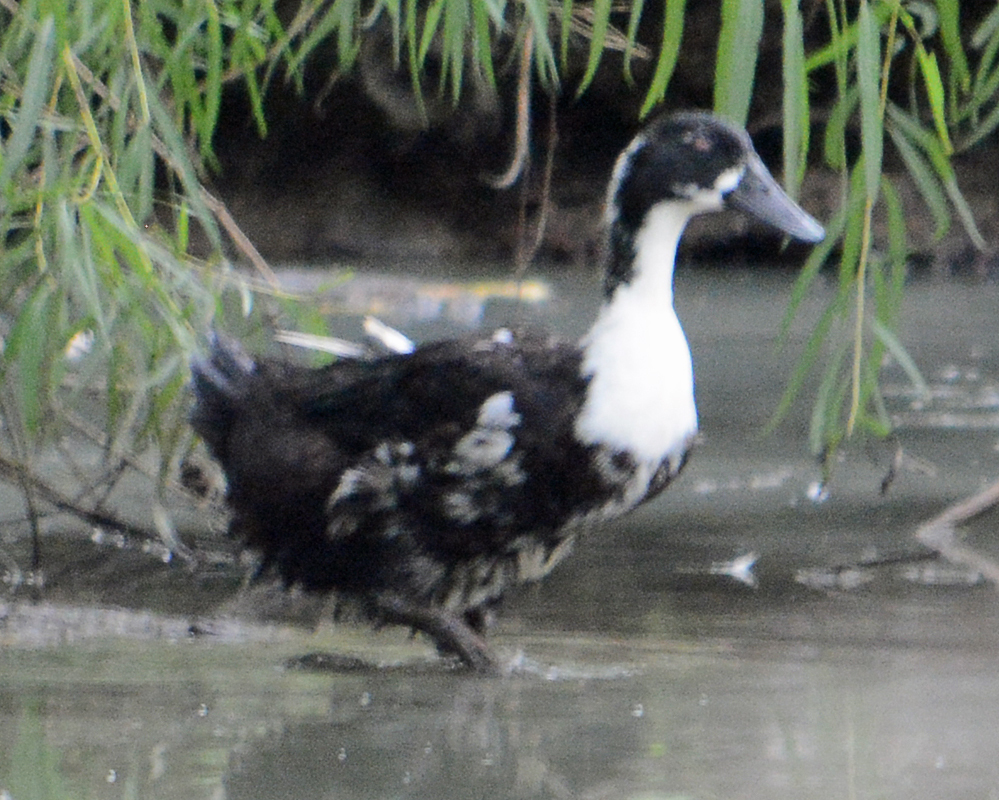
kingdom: Animalia
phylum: Chordata
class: Aves
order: Anseriformes
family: Anatidae
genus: Anas
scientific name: Anas platyrhynchos
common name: Mallard
